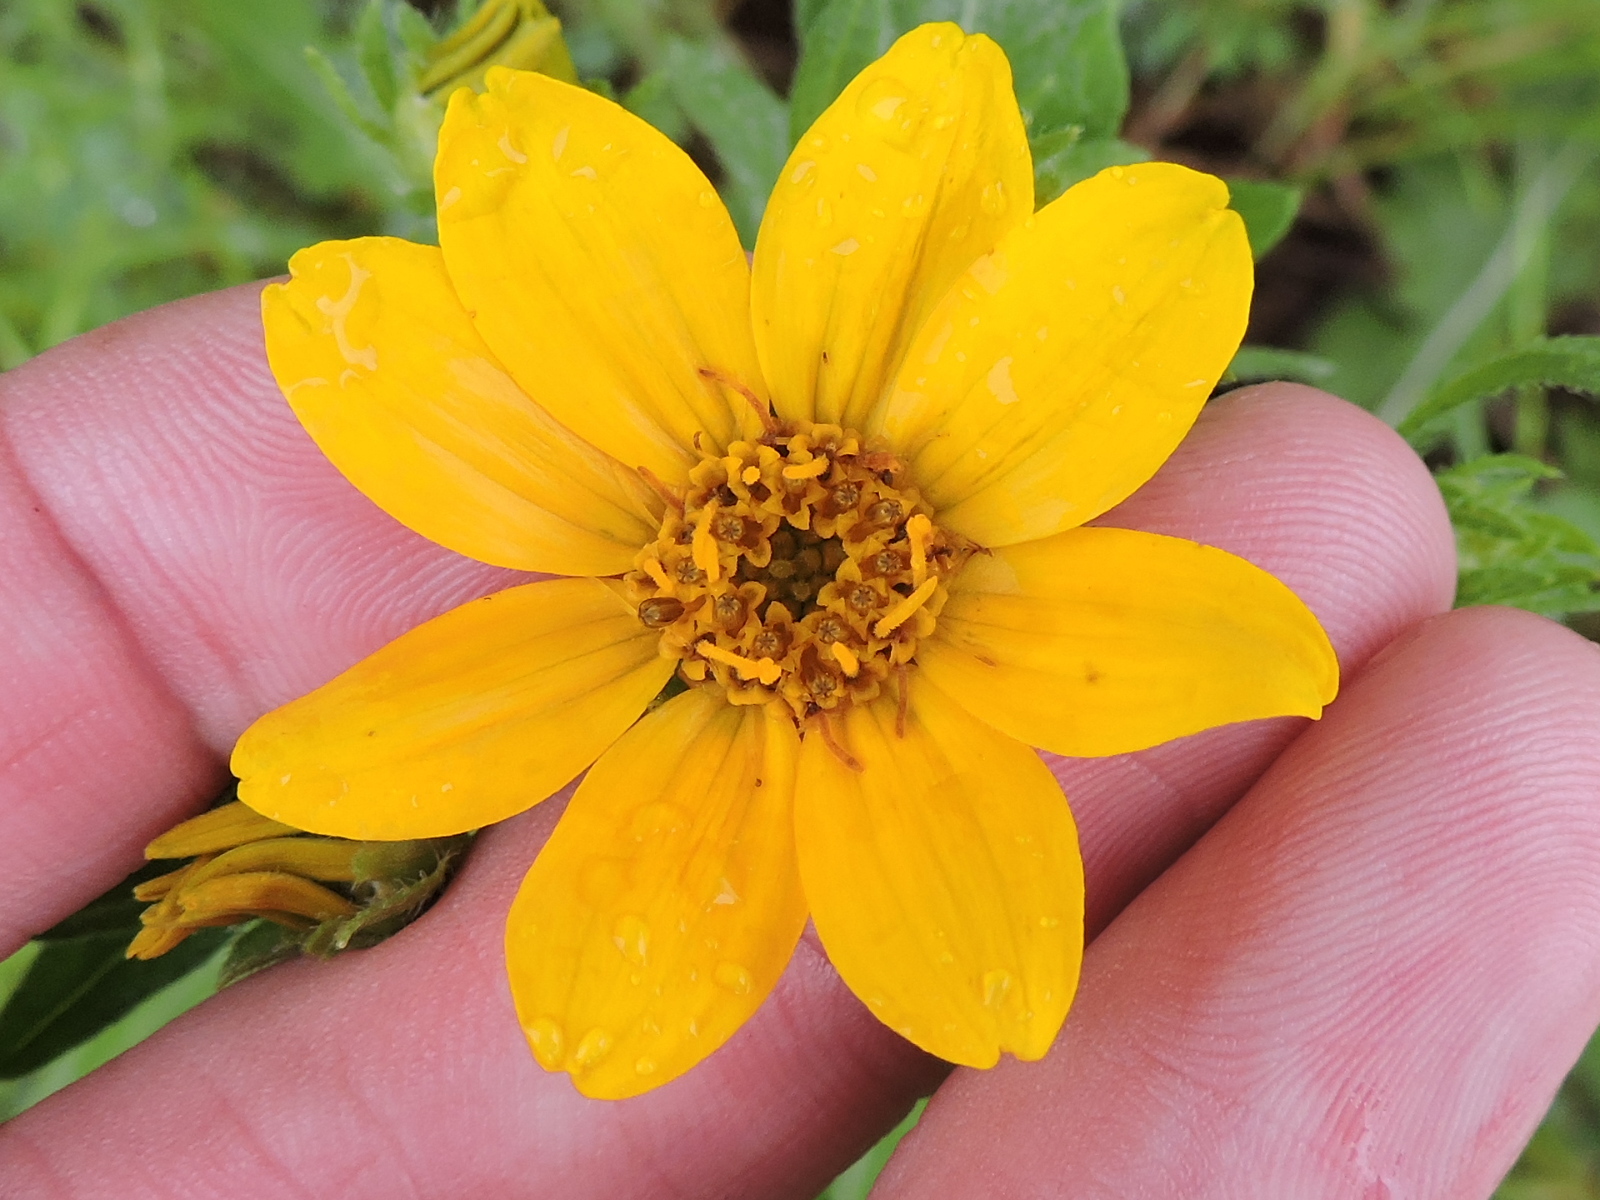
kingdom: Plantae
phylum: Tracheophyta
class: Magnoliopsida
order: Asterales
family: Asteraceae
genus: Engelmannia
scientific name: Engelmannia peristenia
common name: Engelmann's daisy
